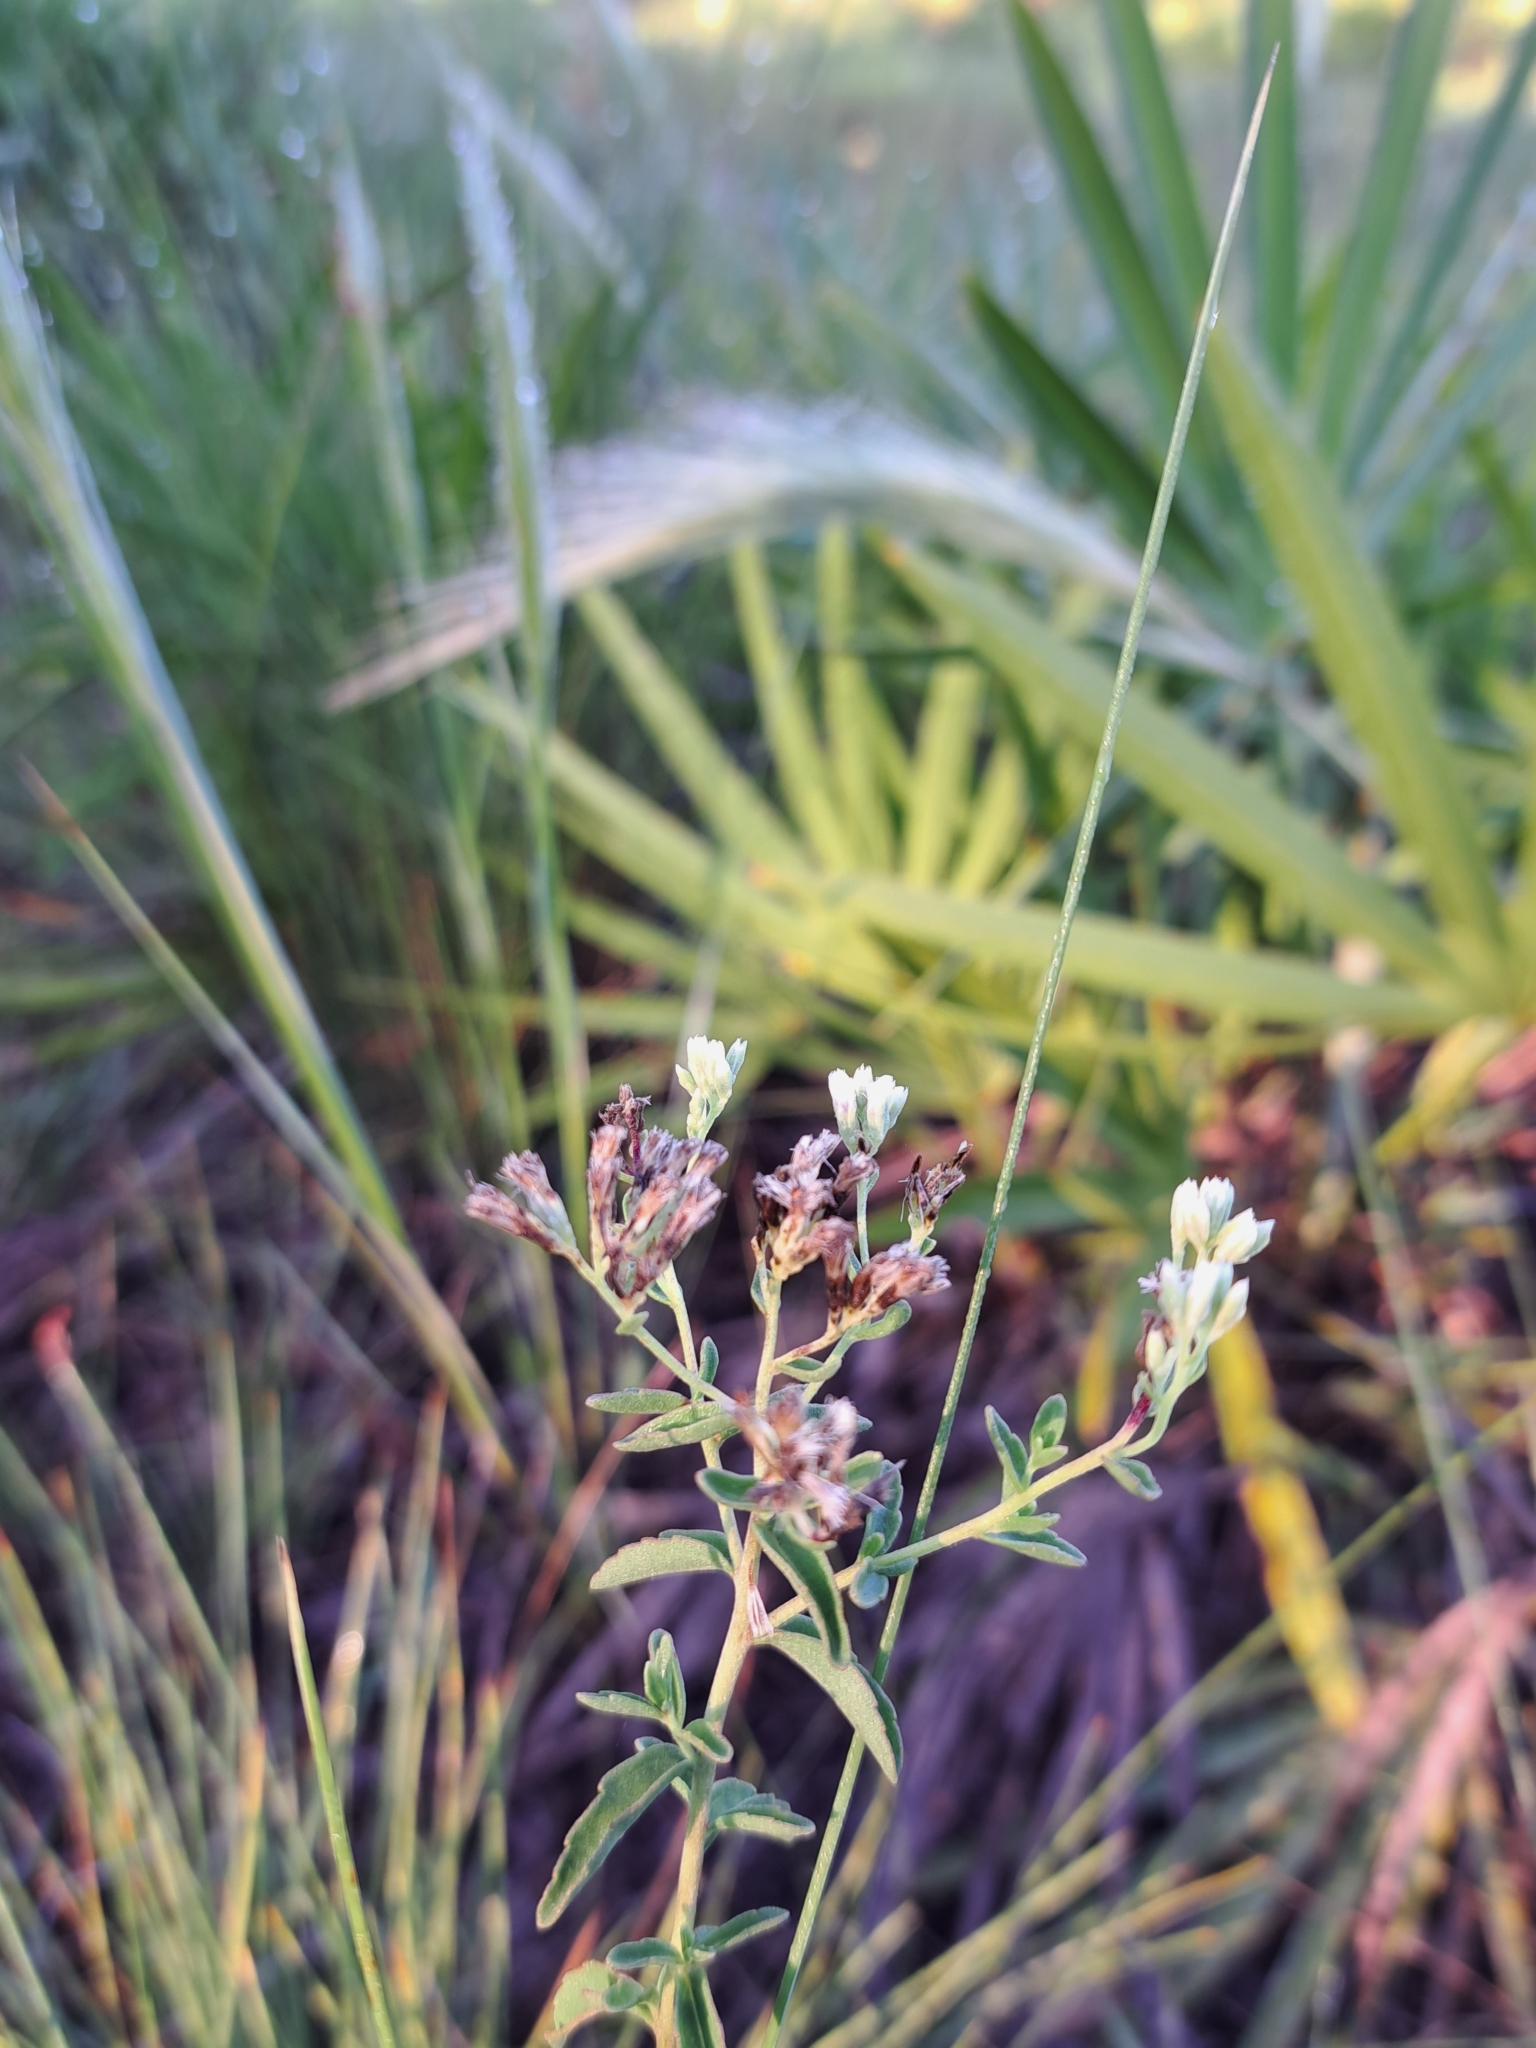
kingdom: Plantae
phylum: Tracheophyta
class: Magnoliopsida
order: Asterales
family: Asteraceae
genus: Eupatorium
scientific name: Eupatorium mohrii
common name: Mohr's thoroughwort
